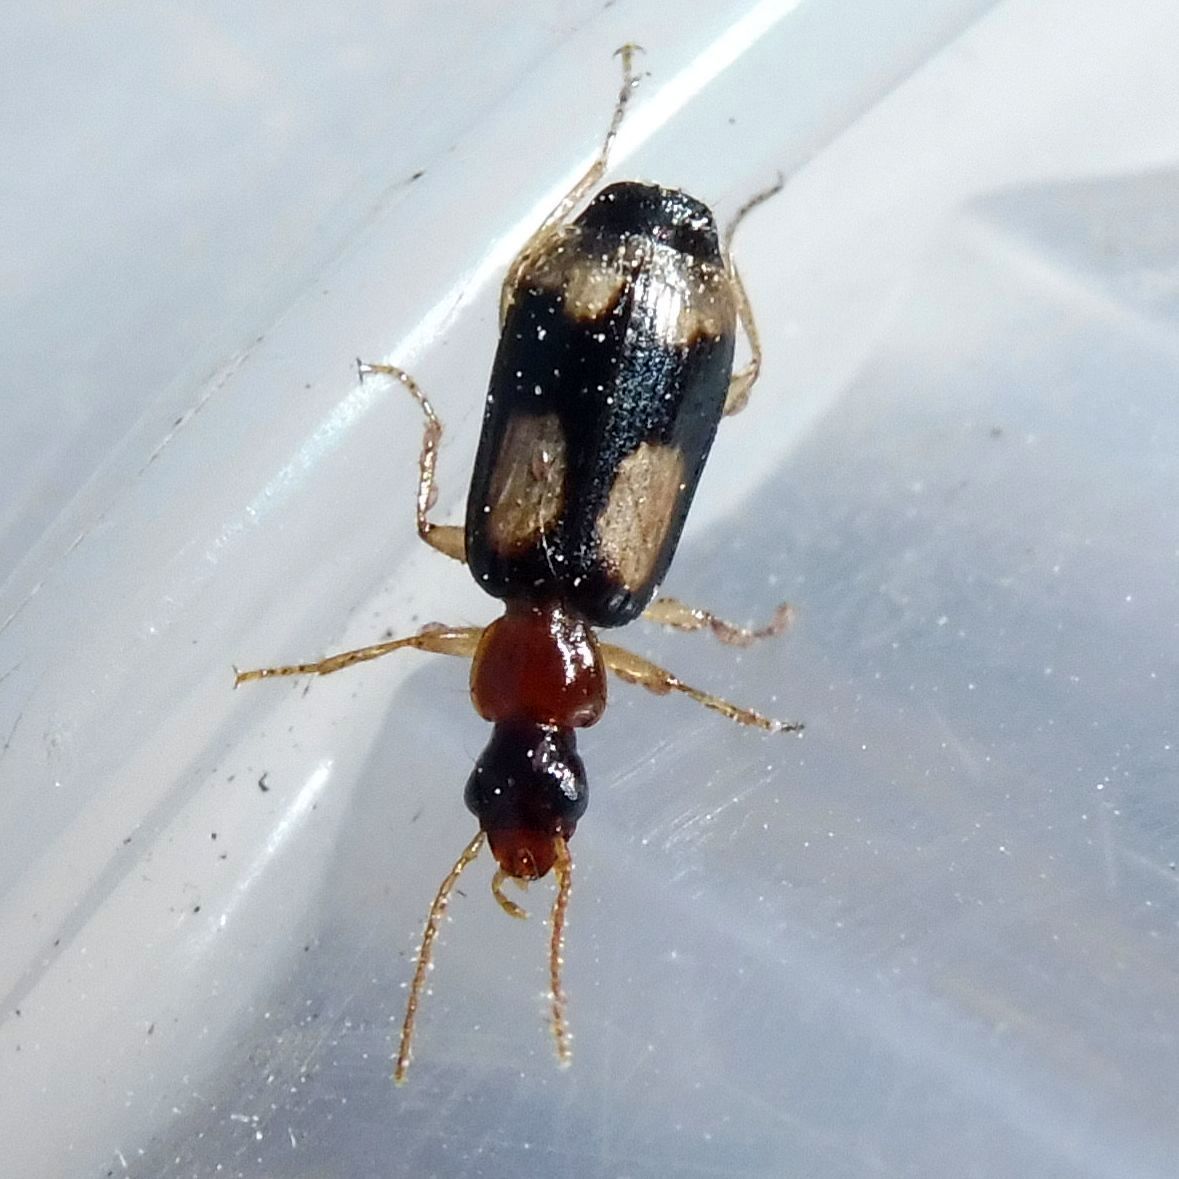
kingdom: Animalia
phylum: Arthropoda
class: Insecta
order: Coleoptera
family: Carabidae
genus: Dromius
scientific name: Dromius quadrimaculatus
